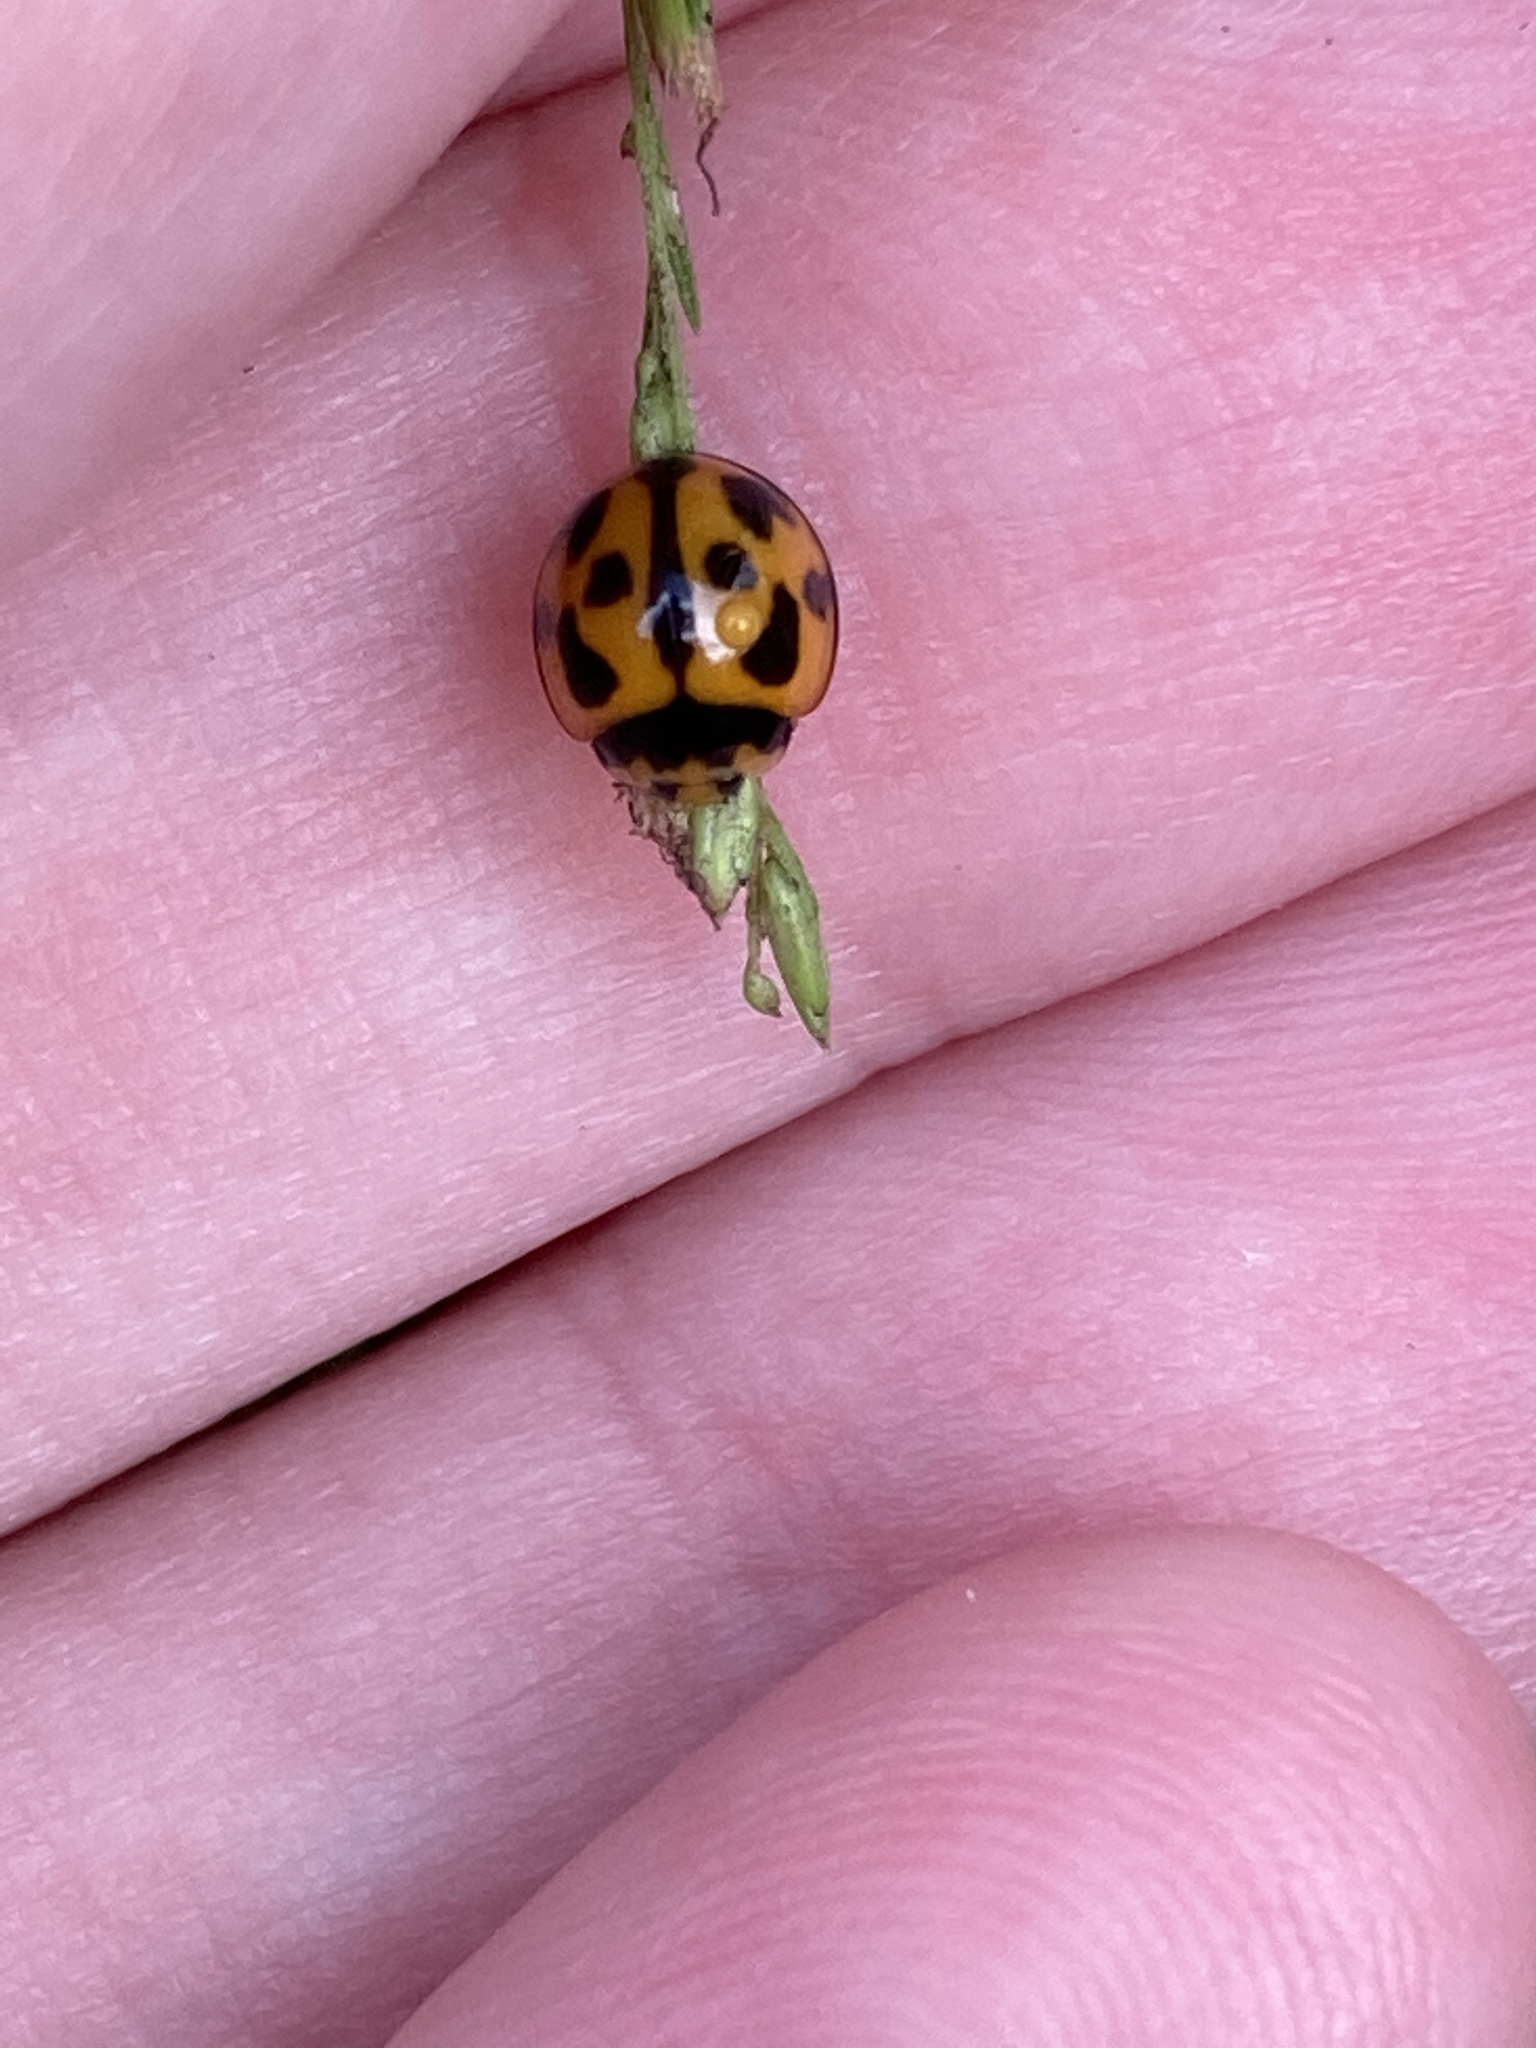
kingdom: Animalia
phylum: Arthropoda
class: Insecta
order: Coleoptera
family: Coccinellidae
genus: Coelophora
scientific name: Coelophora inaequalis
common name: Common australian lady beetle
